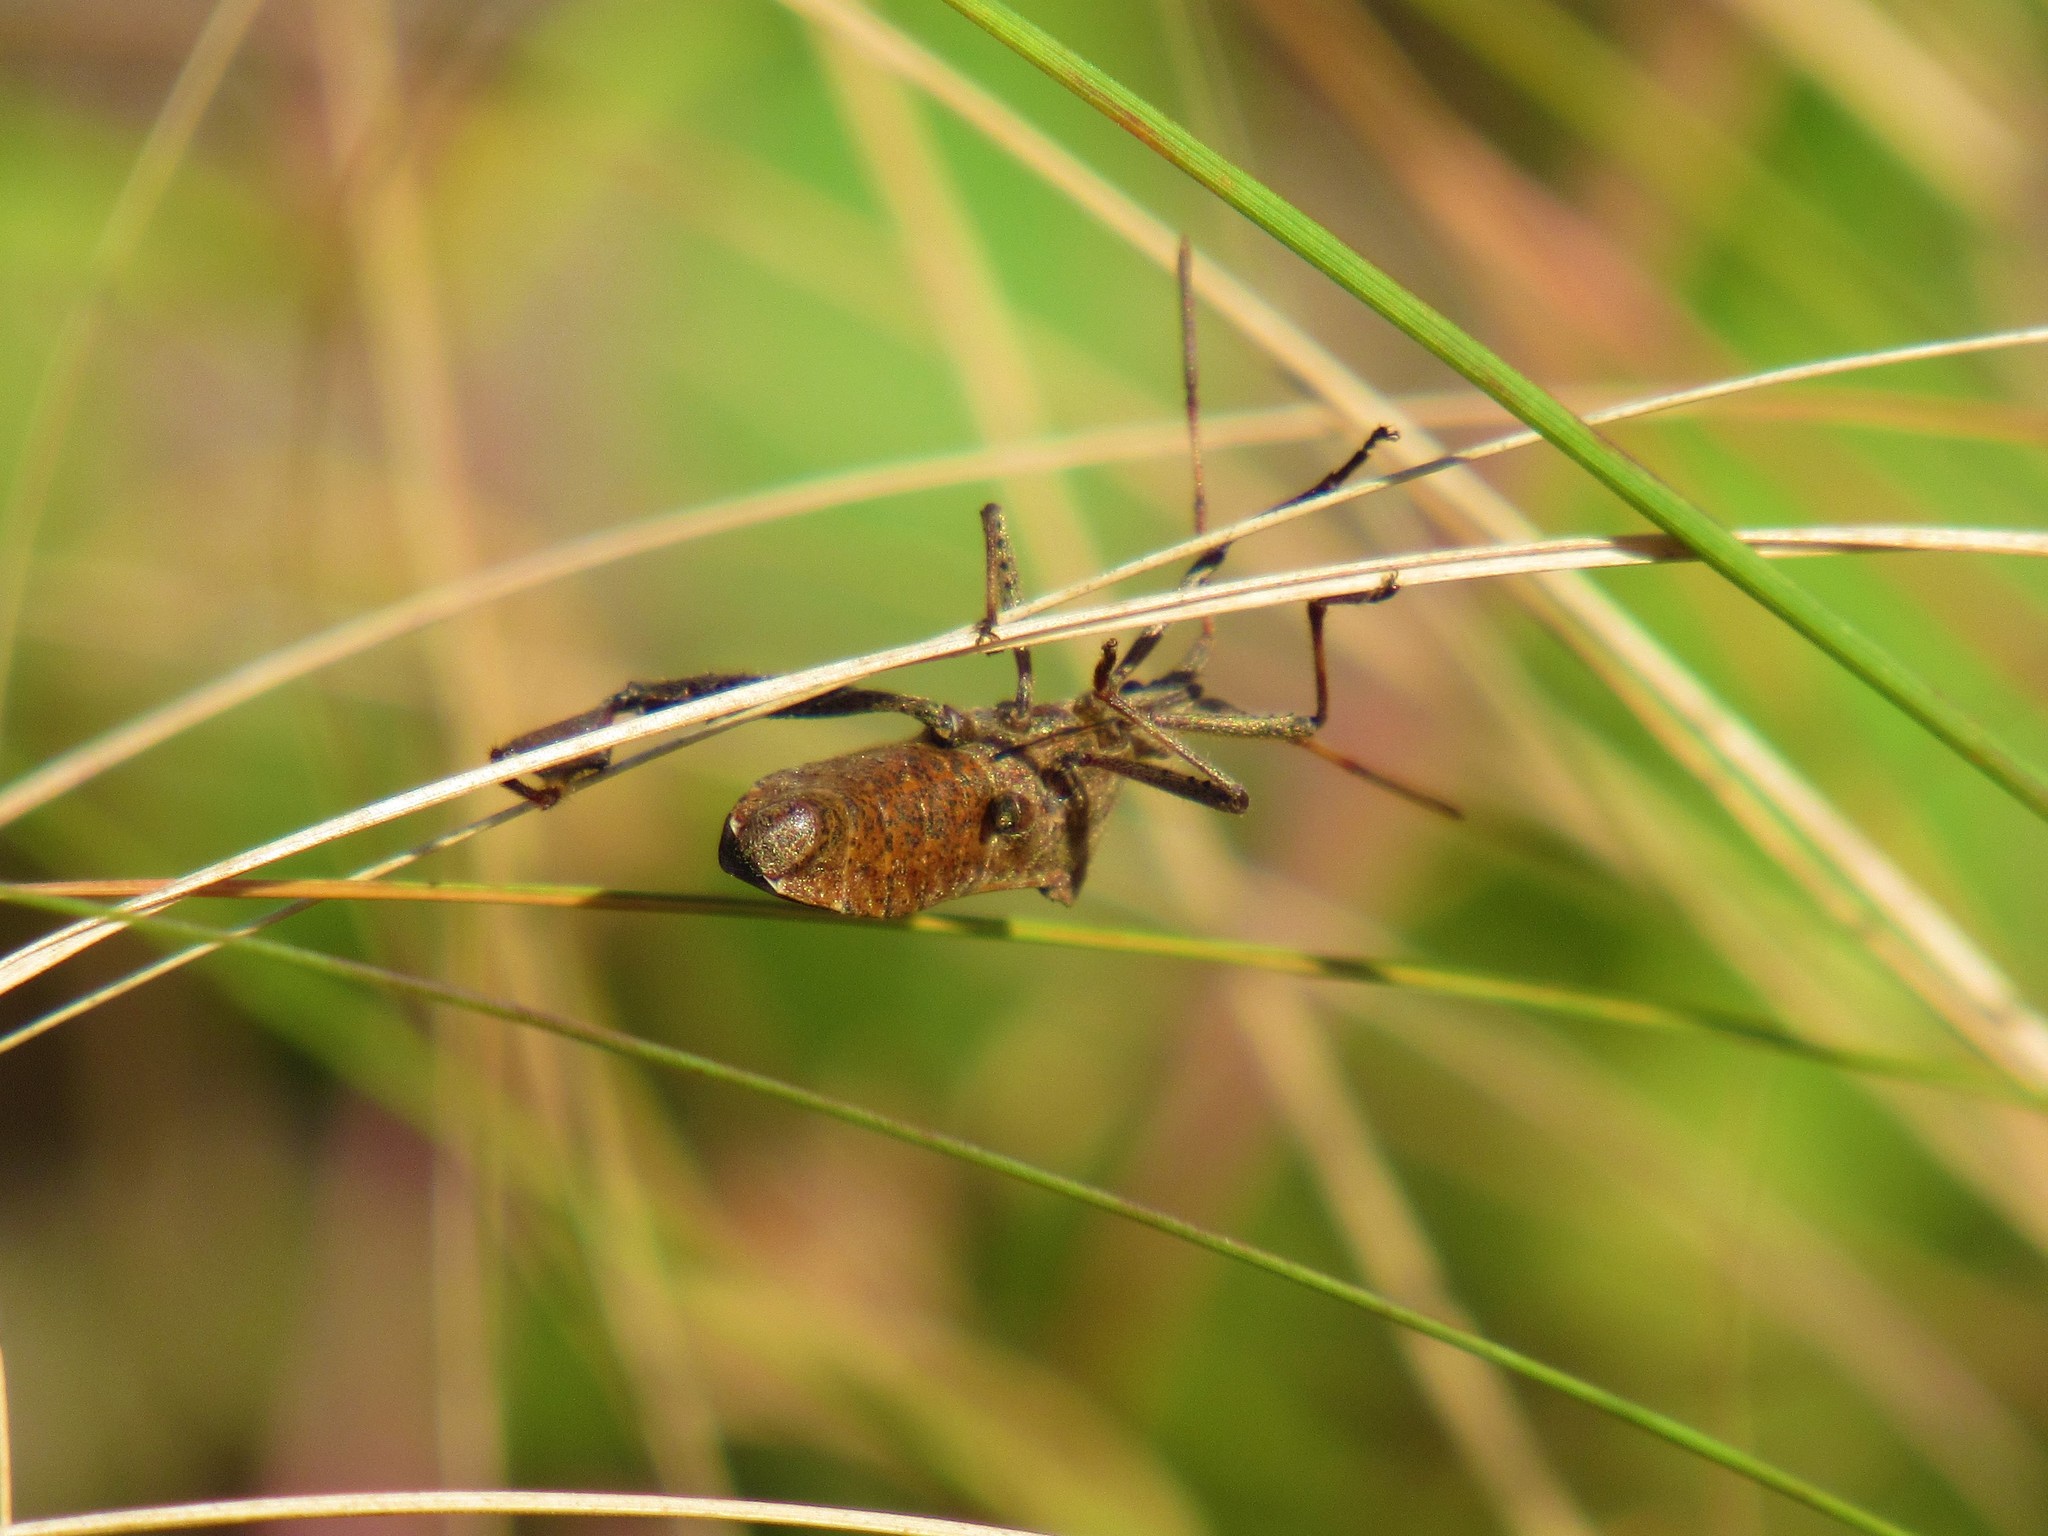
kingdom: Animalia
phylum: Arthropoda
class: Insecta
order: Hemiptera
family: Coreidae
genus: Leptoglossus
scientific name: Leptoglossus phyllopus
